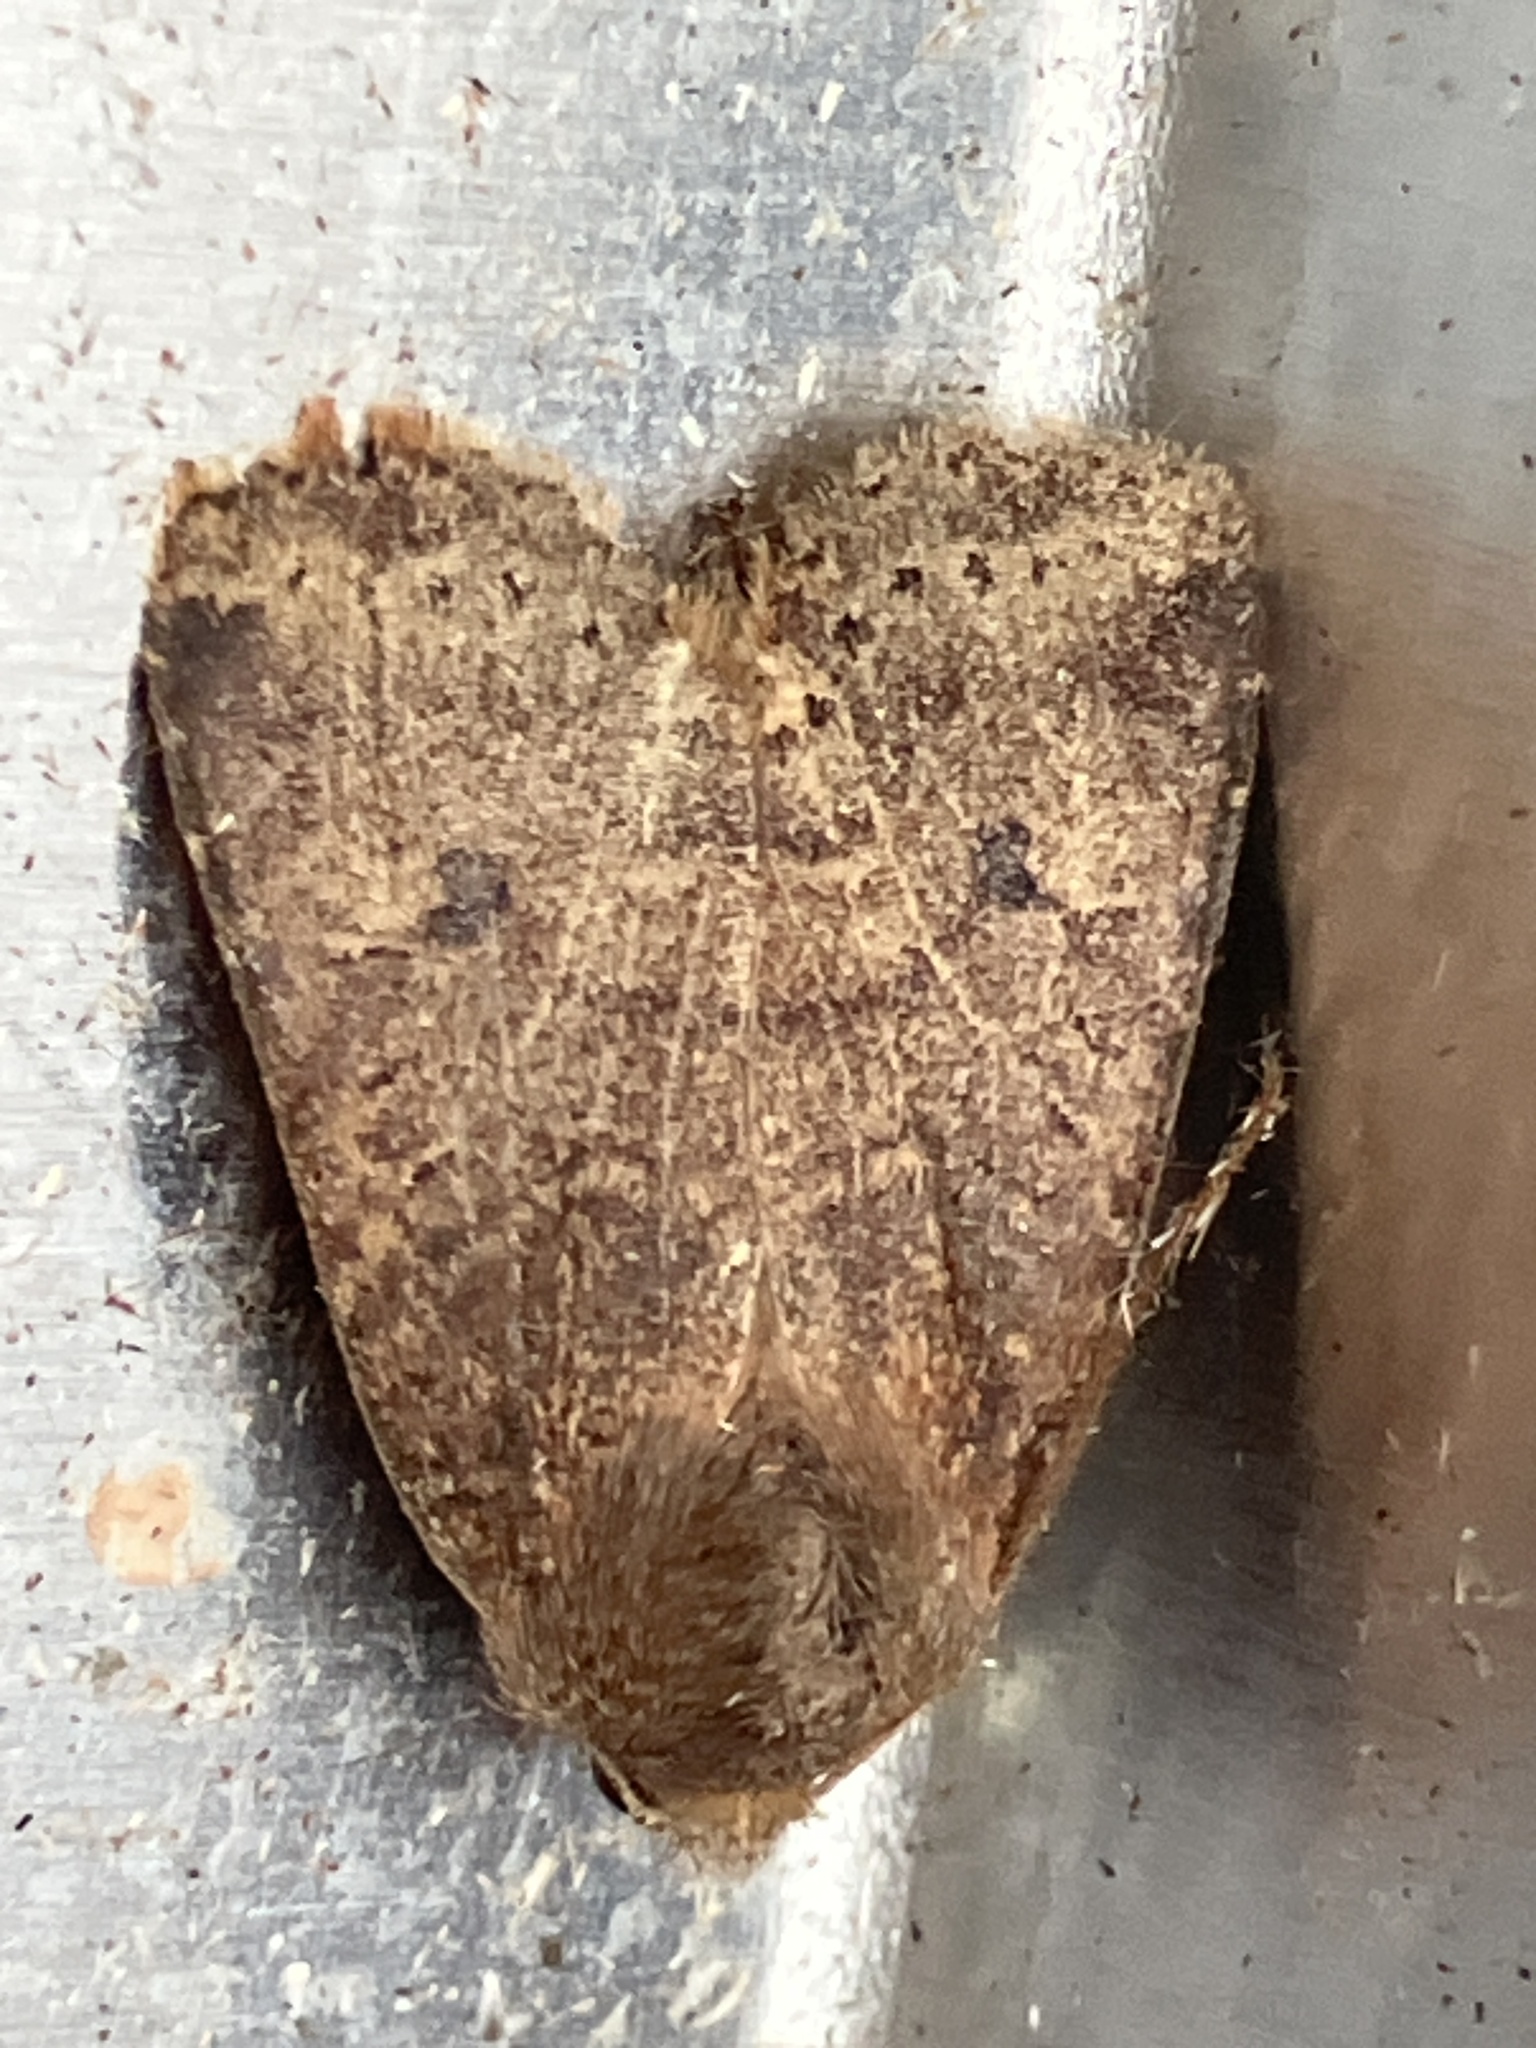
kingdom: Animalia
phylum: Arthropoda
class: Insecta
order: Lepidoptera
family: Noctuidae
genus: Conistra
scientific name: Conistra vaccinii
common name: Chestnut
